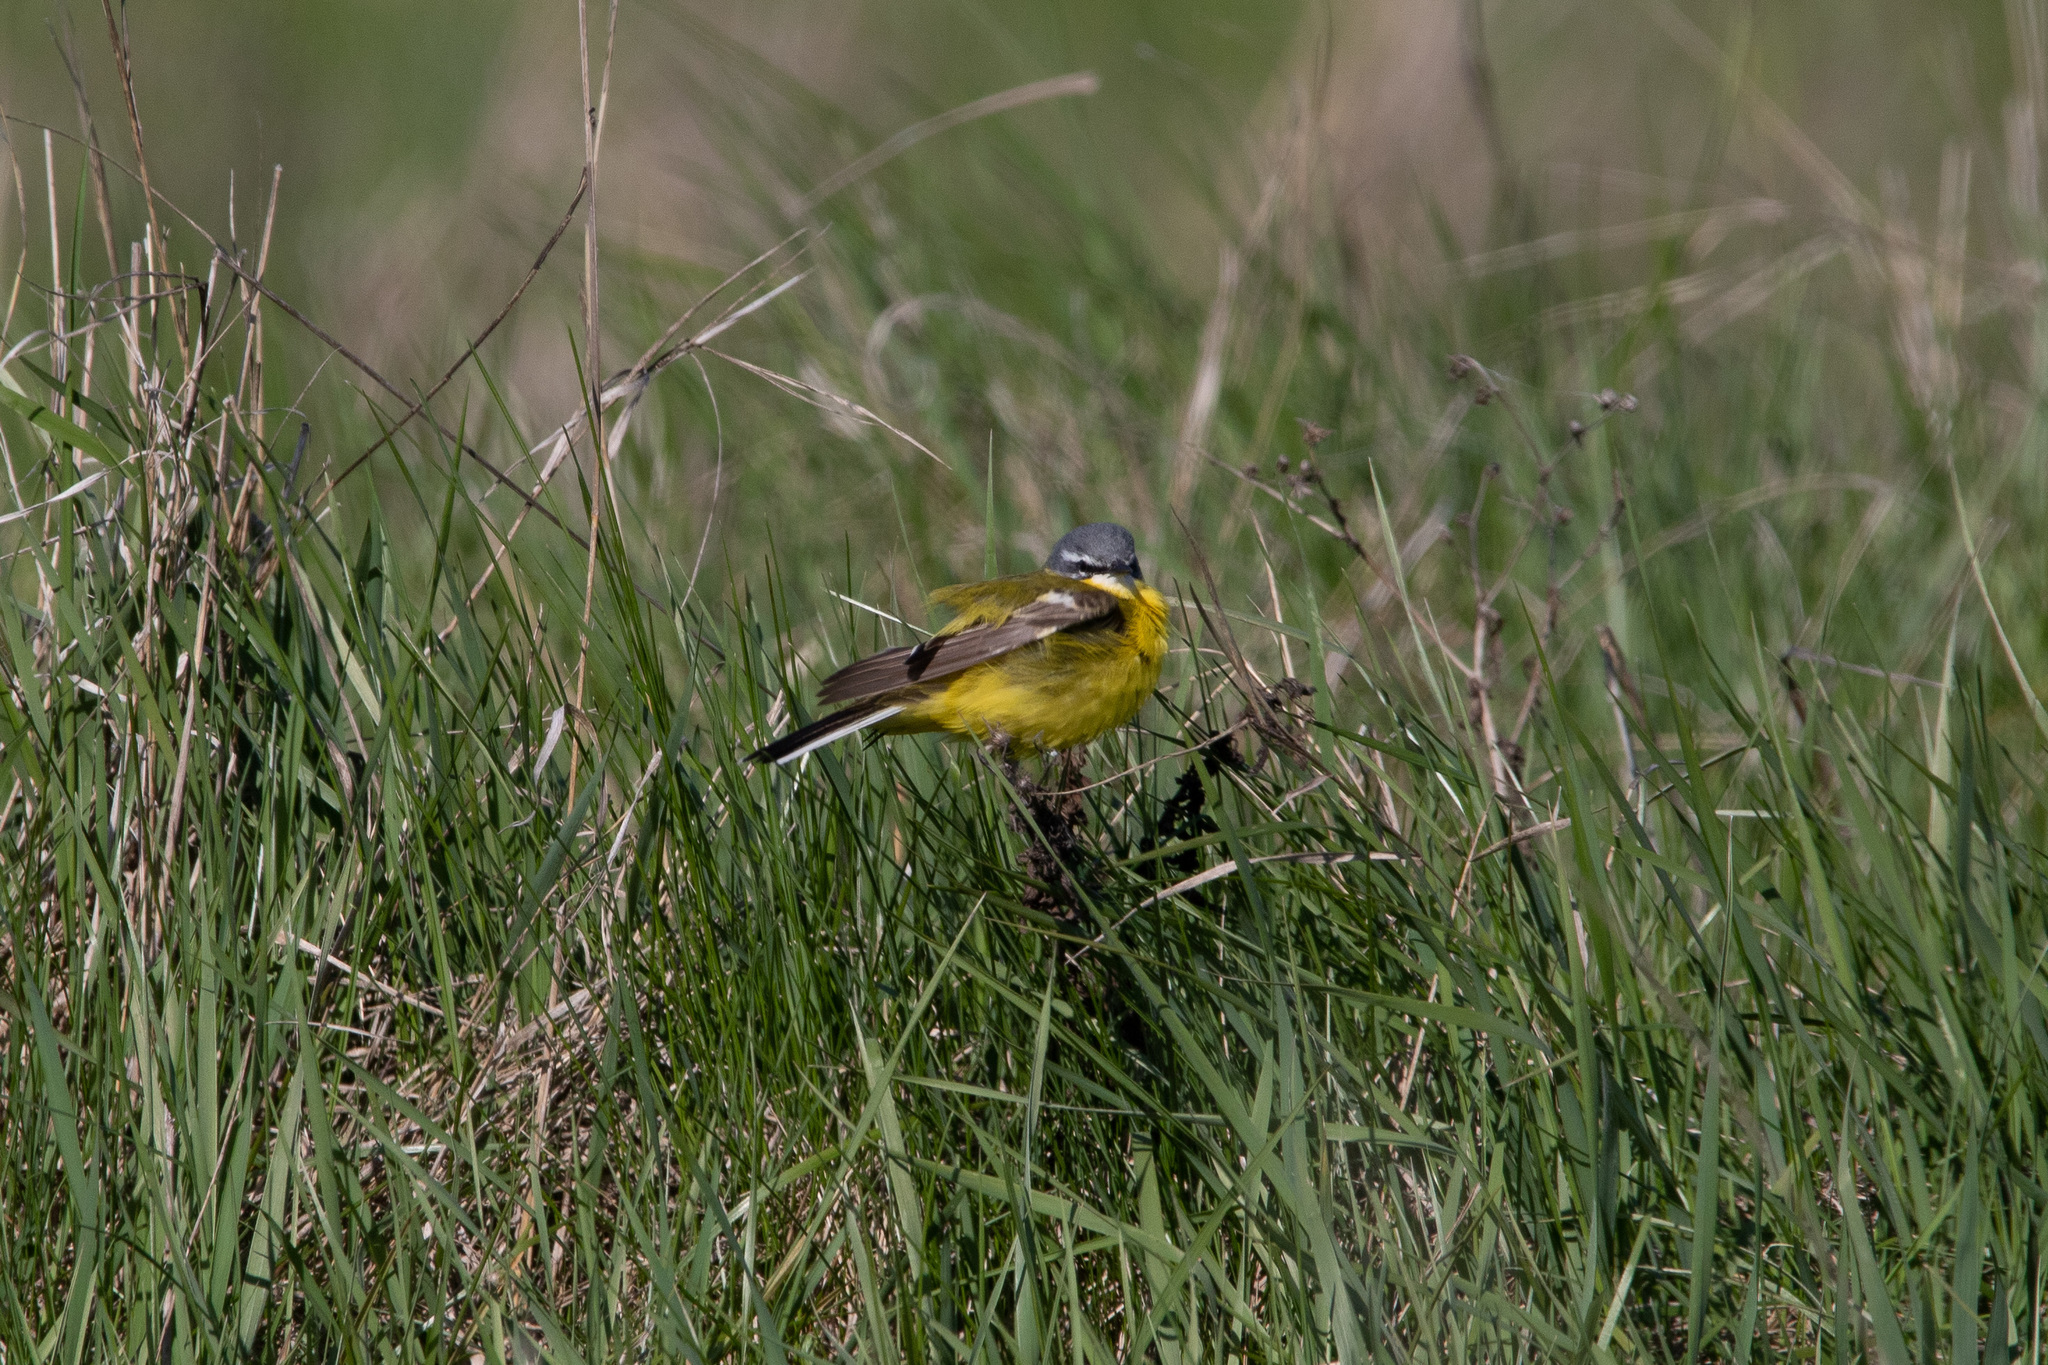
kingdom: Animalia
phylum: Chordata
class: Aves
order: Passeriformes
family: Motacillidae
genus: Motacilla
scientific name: Motacilla flava
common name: Western yellow wagtail
